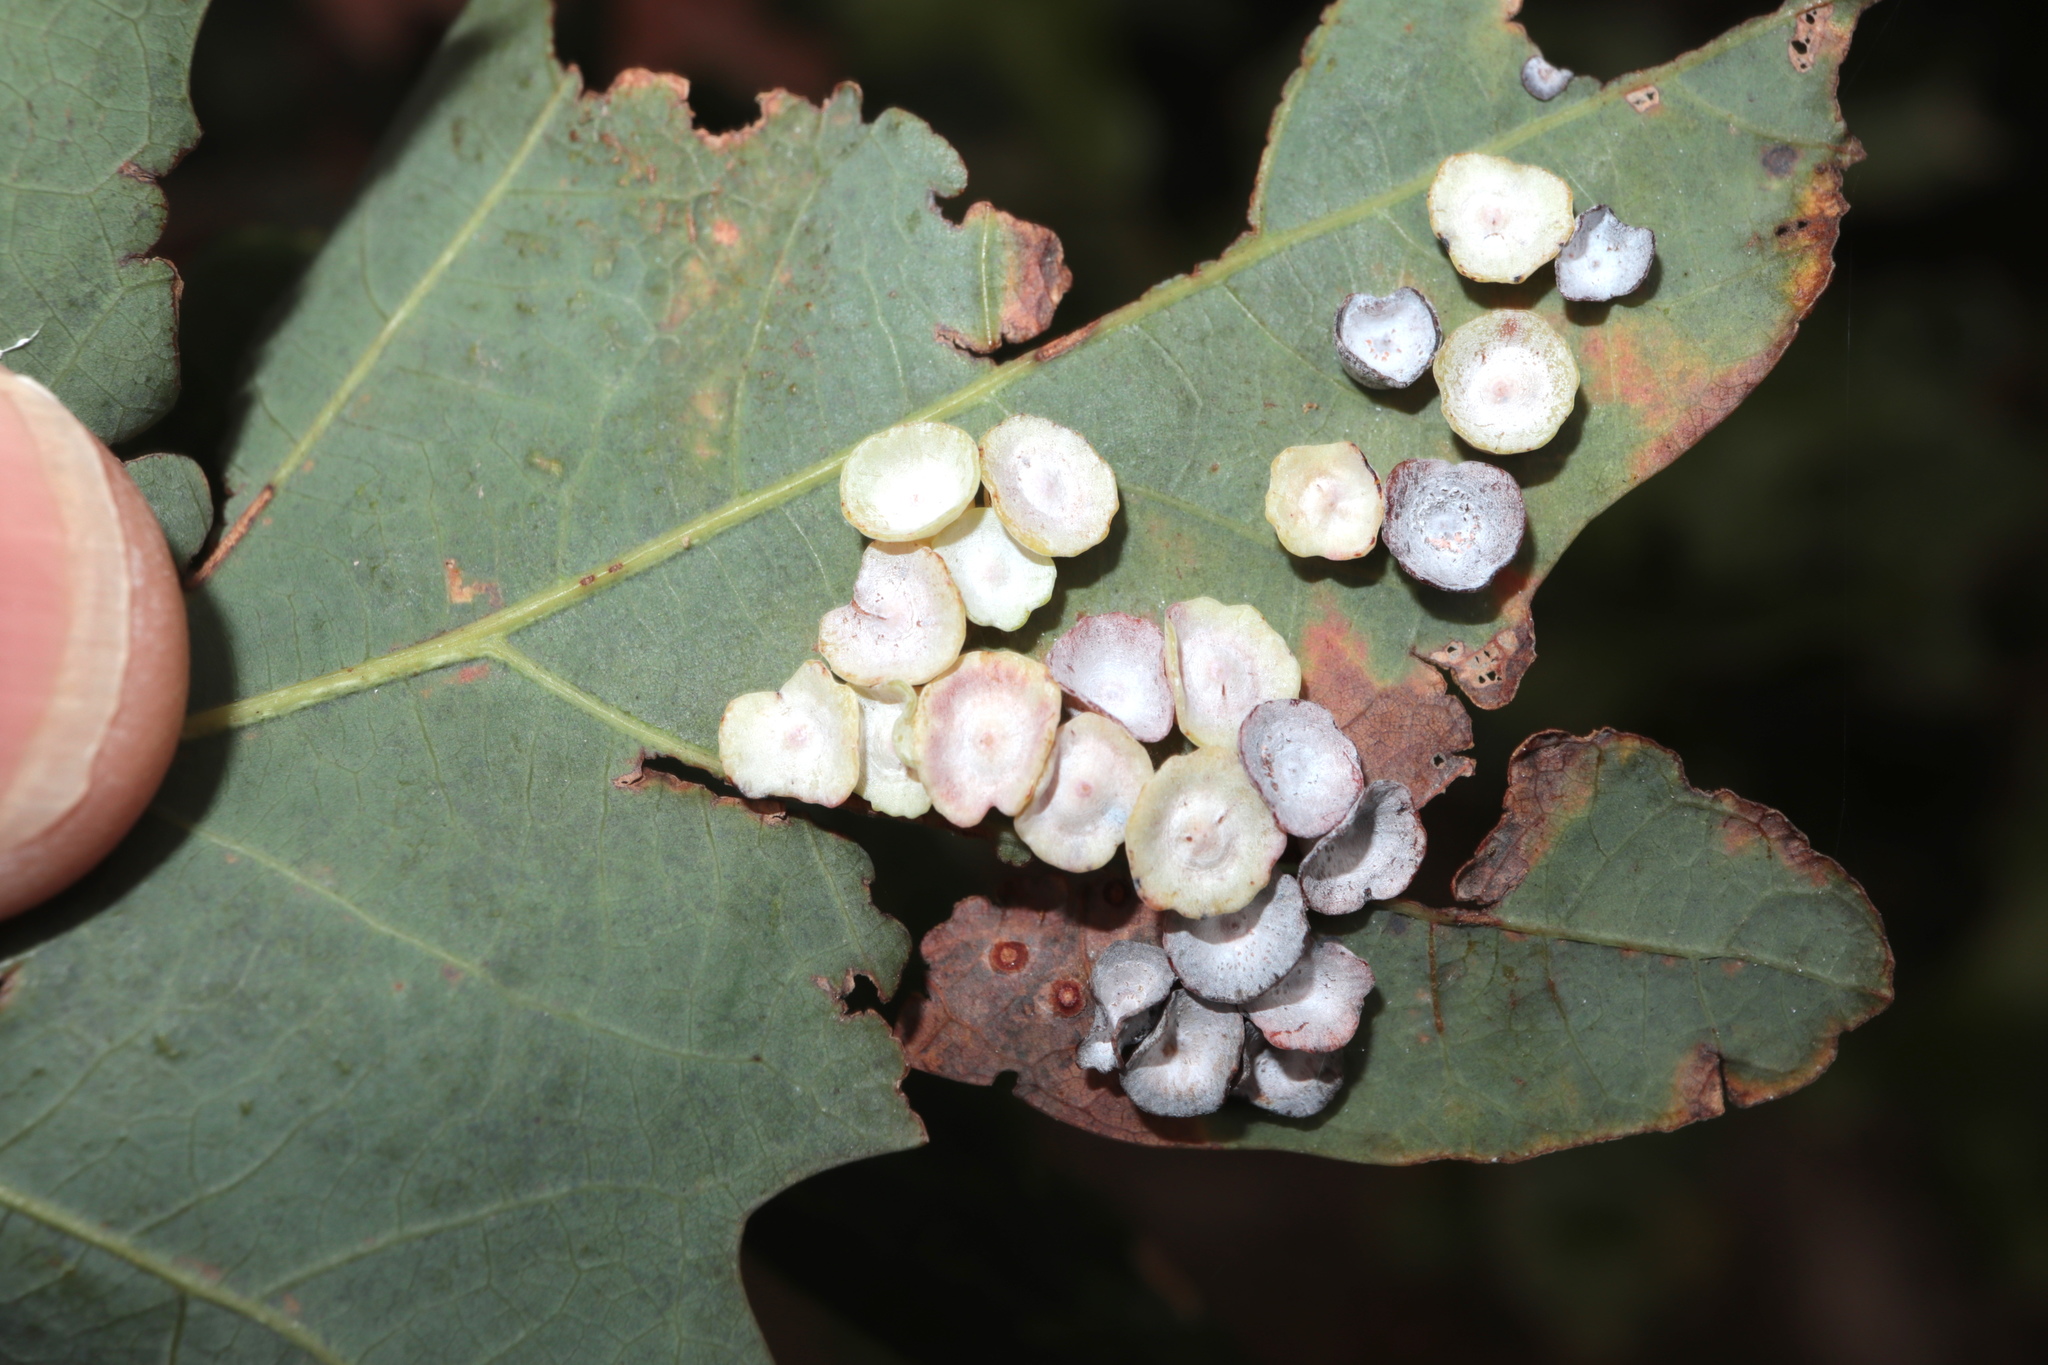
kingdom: Animalia
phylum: Arthropoda
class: Insecta
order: Hymenoptera
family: Cynipidae
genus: Phylloteras
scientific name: Phylloteras poculum
